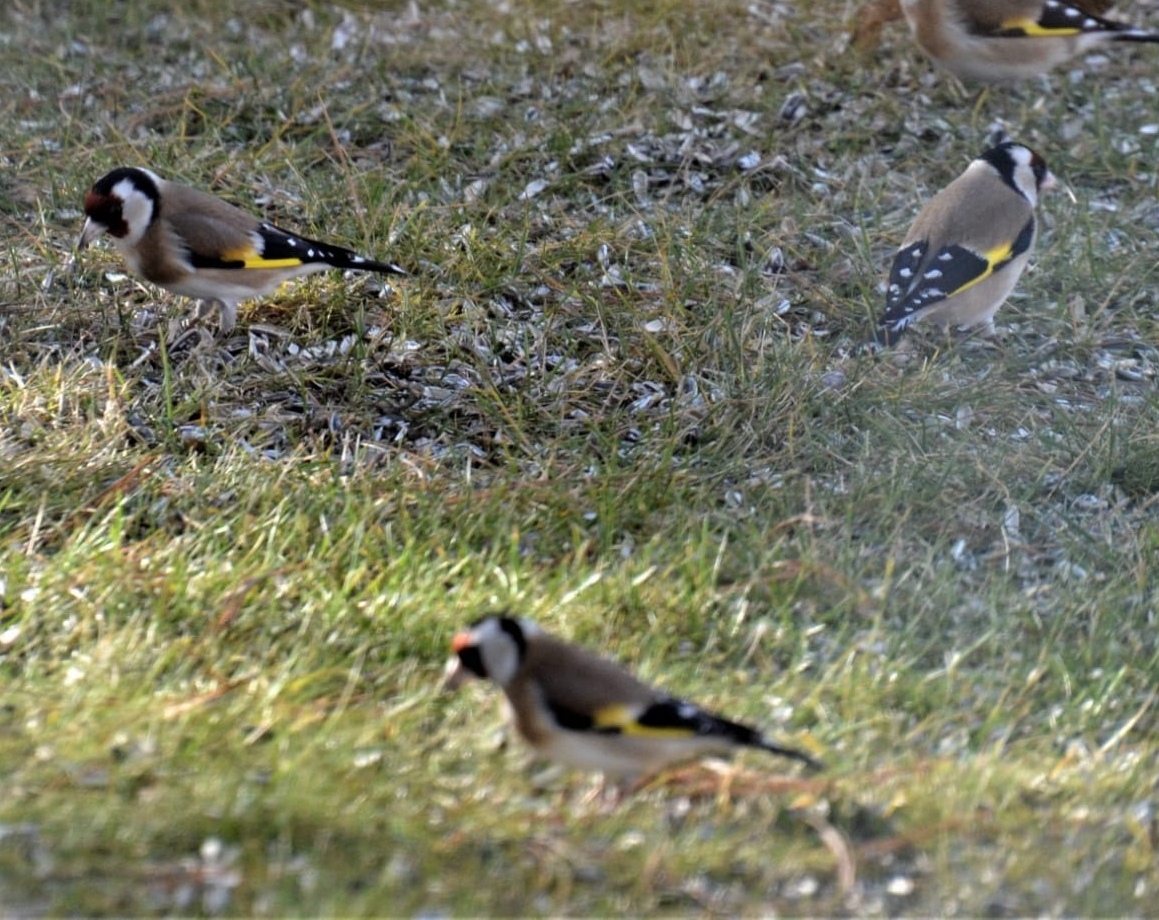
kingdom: Animalia
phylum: Chordata
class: Aves
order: Passeriformes
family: Fringillidae
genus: Carduelis
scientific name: Carduelis carduelis
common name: European goldfinch
